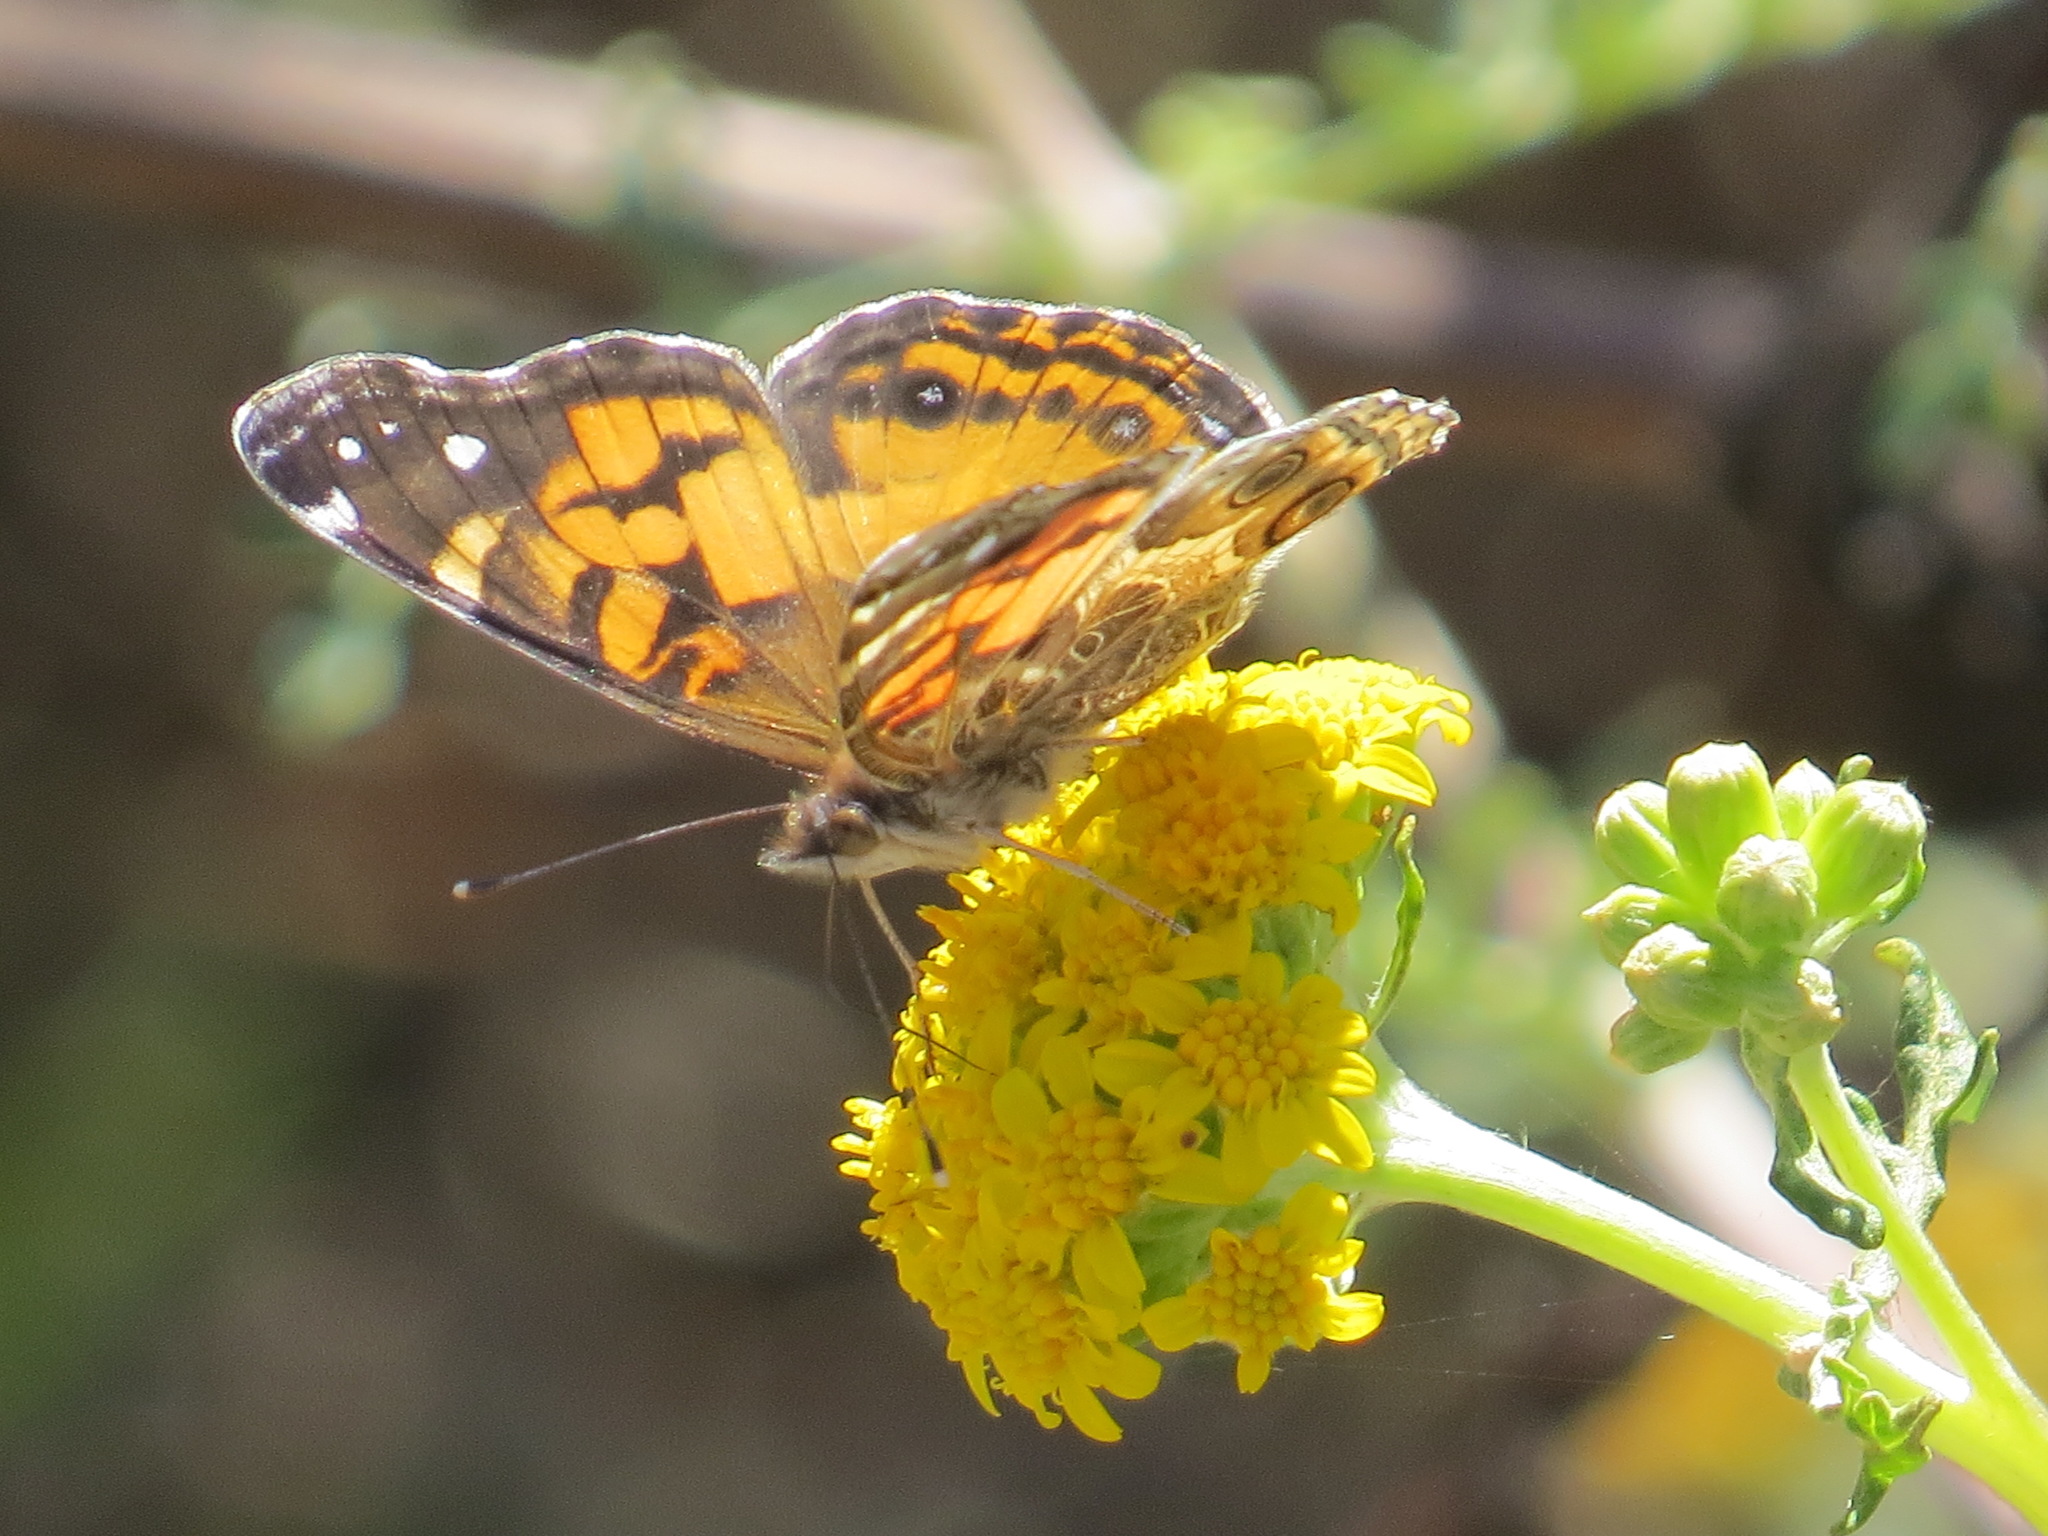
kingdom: Animalia
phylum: Arthropoda
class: Insecta
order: Lepidoptera
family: Nymphalidae
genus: Vanessa
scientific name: Vanessa virginiensis
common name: American lady
